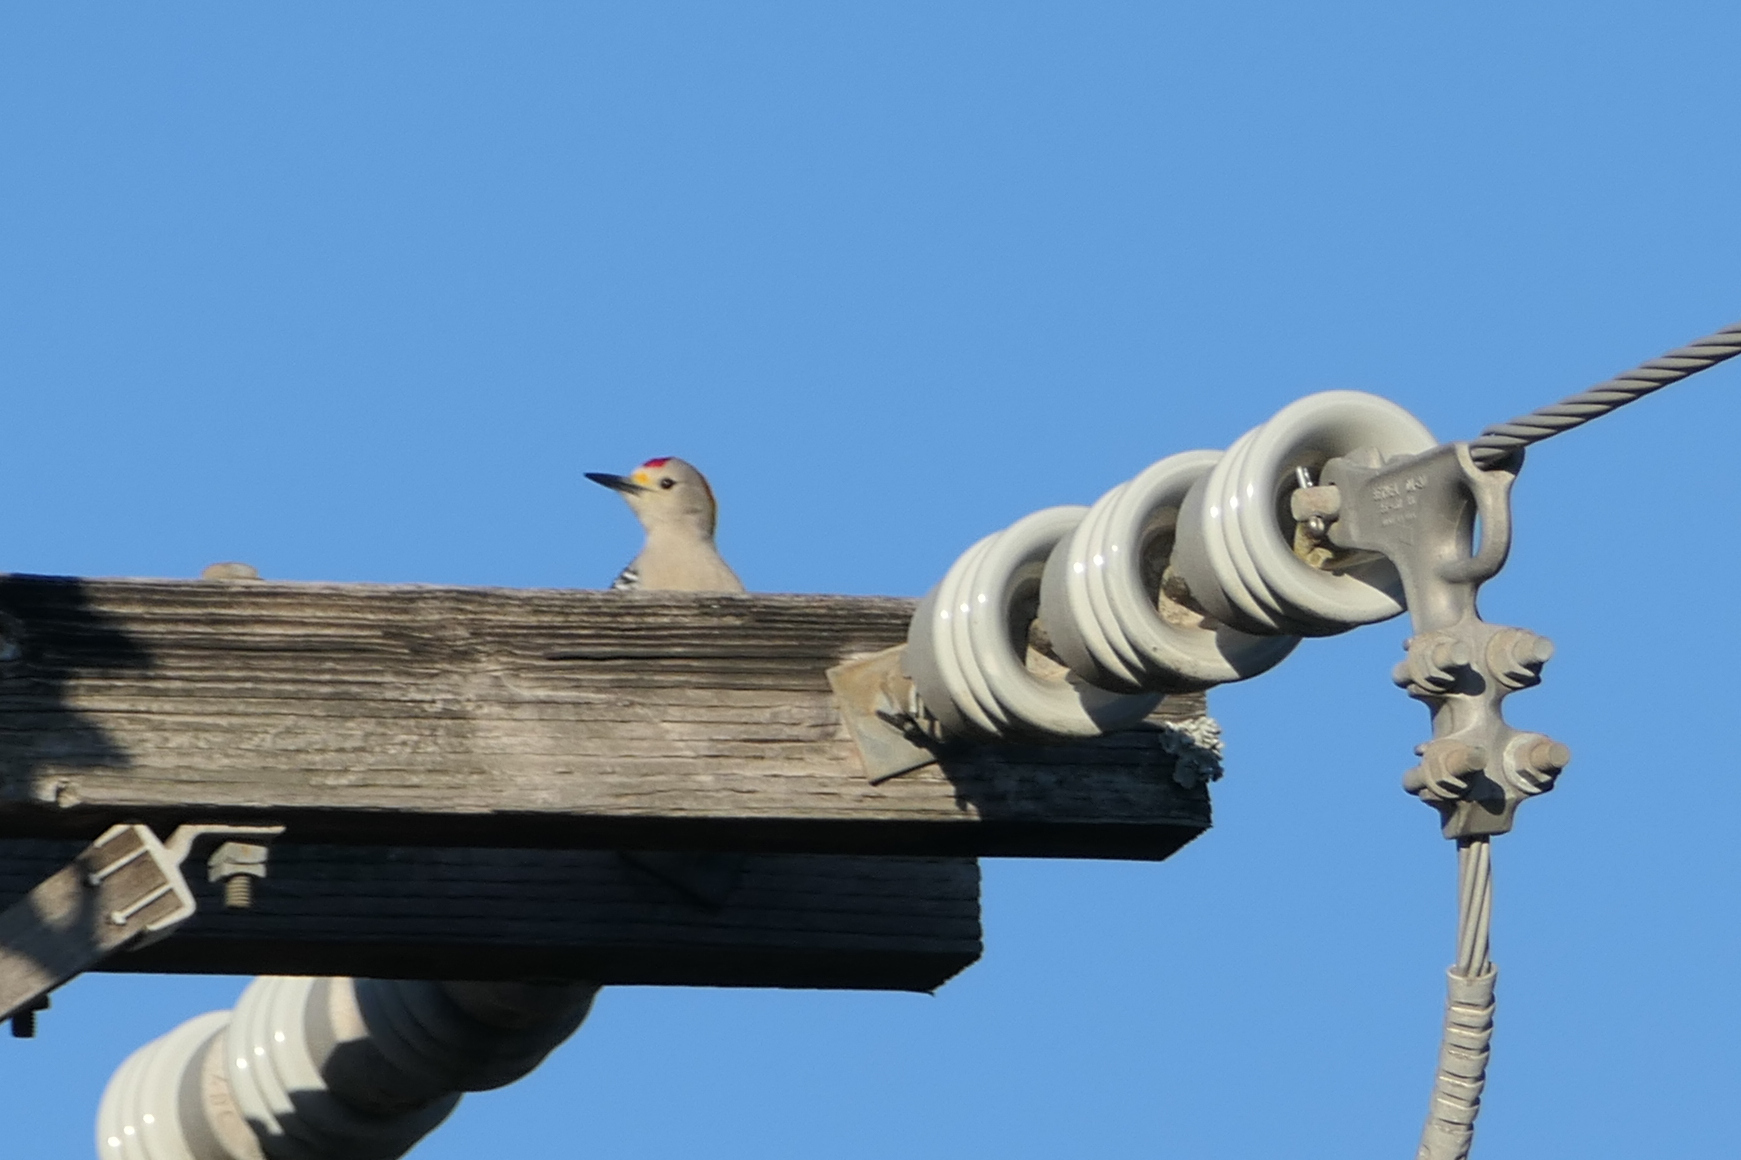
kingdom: Animalia
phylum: Chordata
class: Aves
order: Piciformes
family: Picidae
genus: Melanerpes
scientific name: Melanerpes aurifrons
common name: Golden-fronted woodpecker
